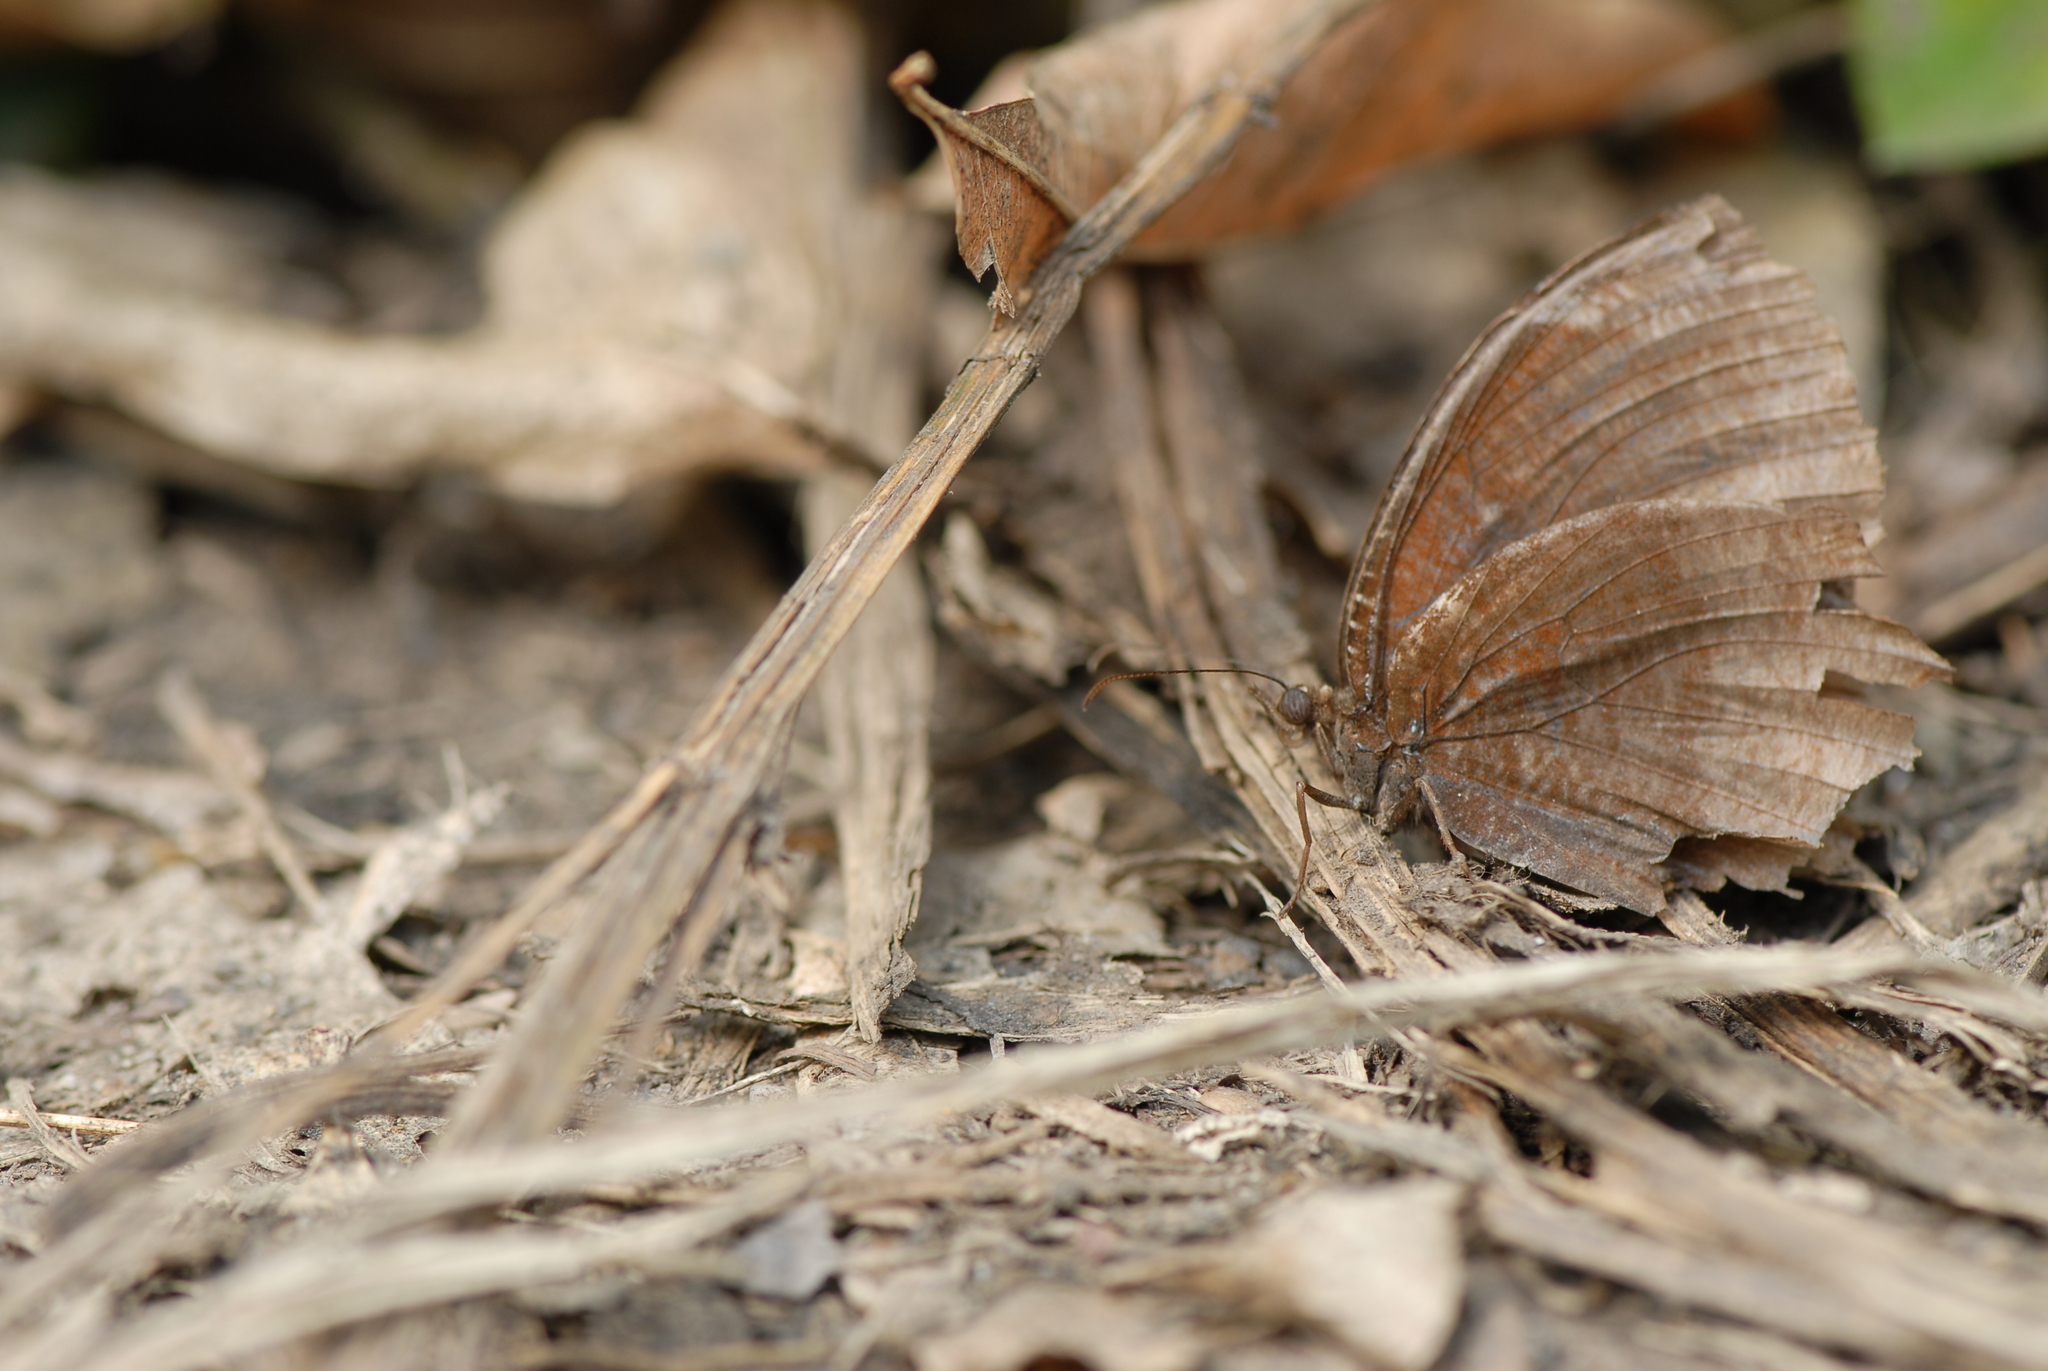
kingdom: Animalia
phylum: Arthropoda
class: Insecta
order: Lepidoptera
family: Nymphalidae
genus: Elymnias
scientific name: Elymnias hypermnestra
